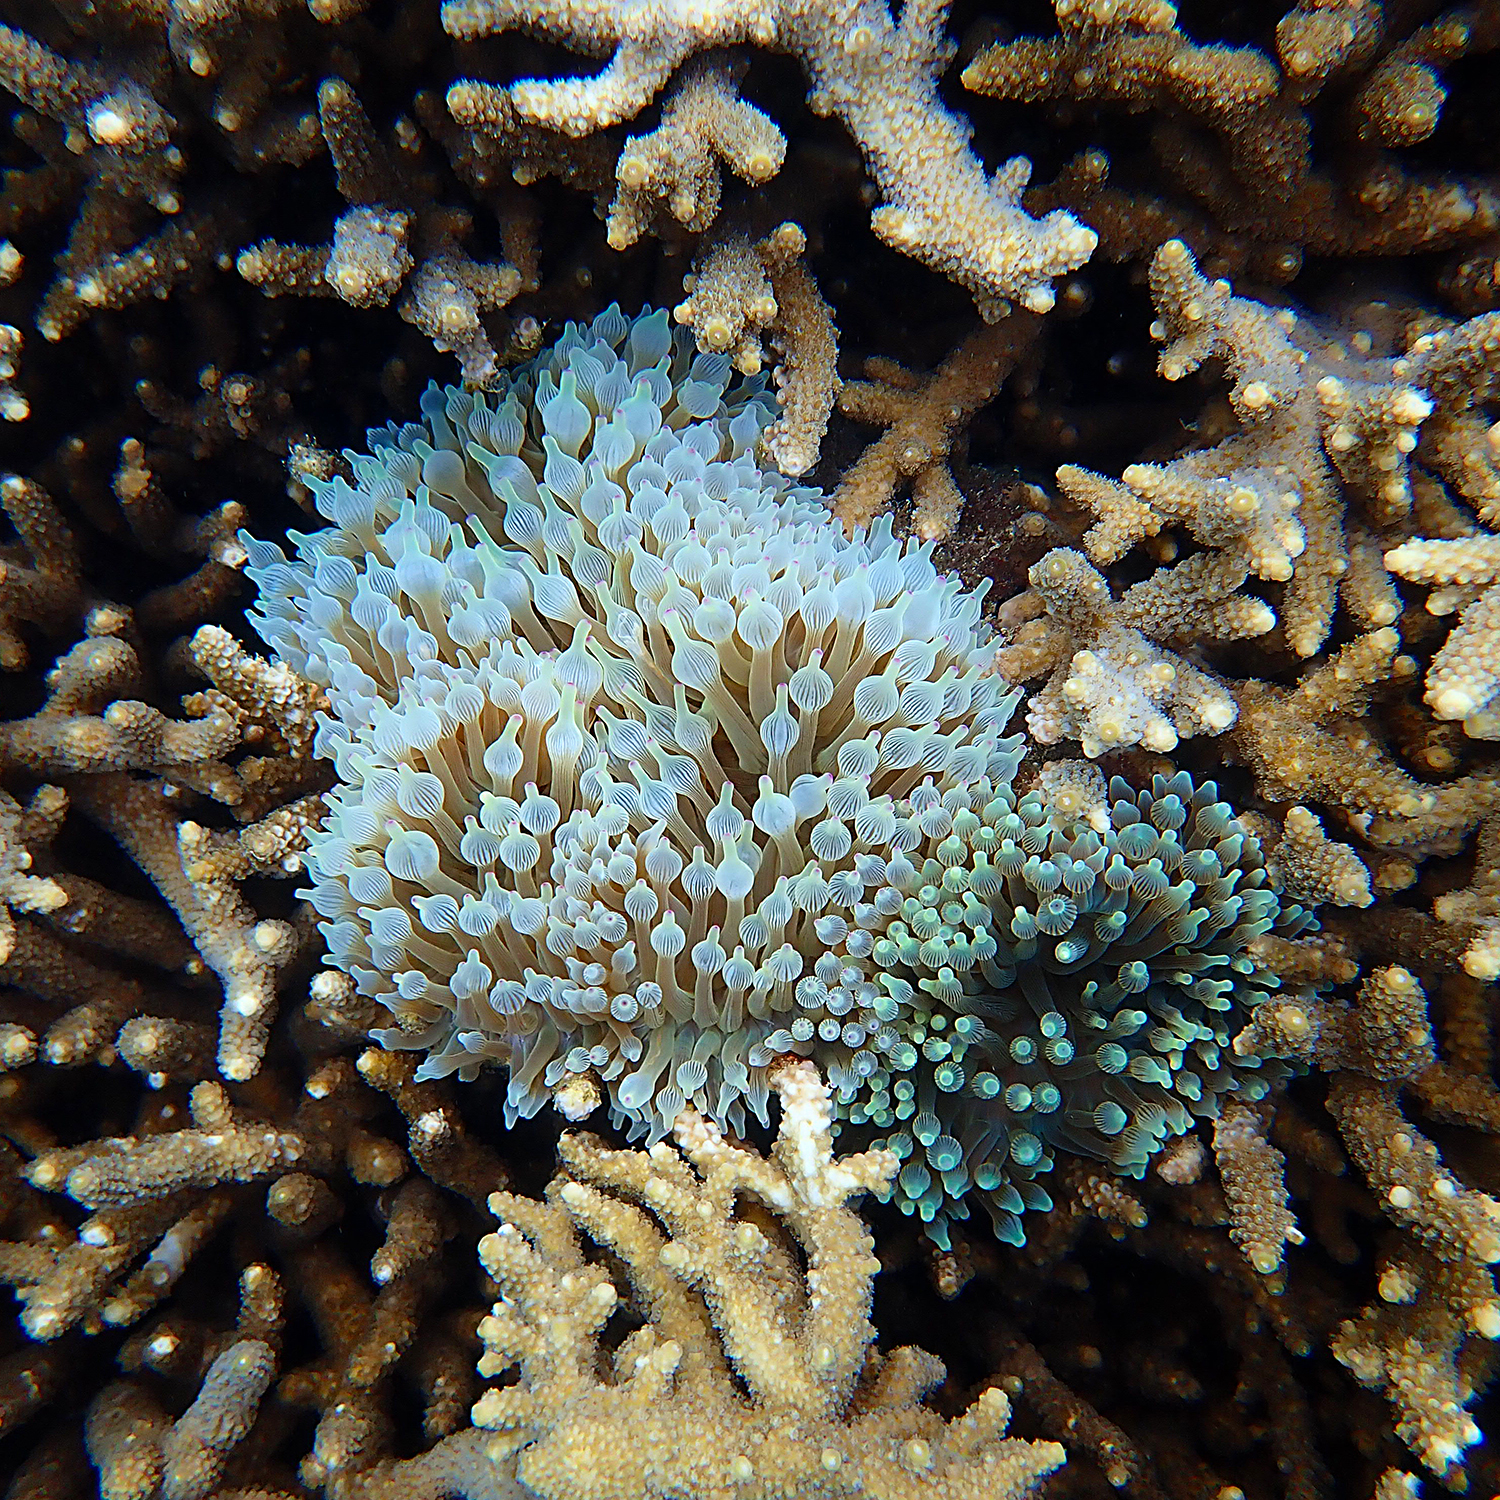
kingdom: Animalia
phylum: Cnidaria
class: Anthozoa
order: Actiniaria
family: Actiniidae
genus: Entacmaea
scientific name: Entacmaea quadricolor
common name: Bulb tentacle sea anemone
